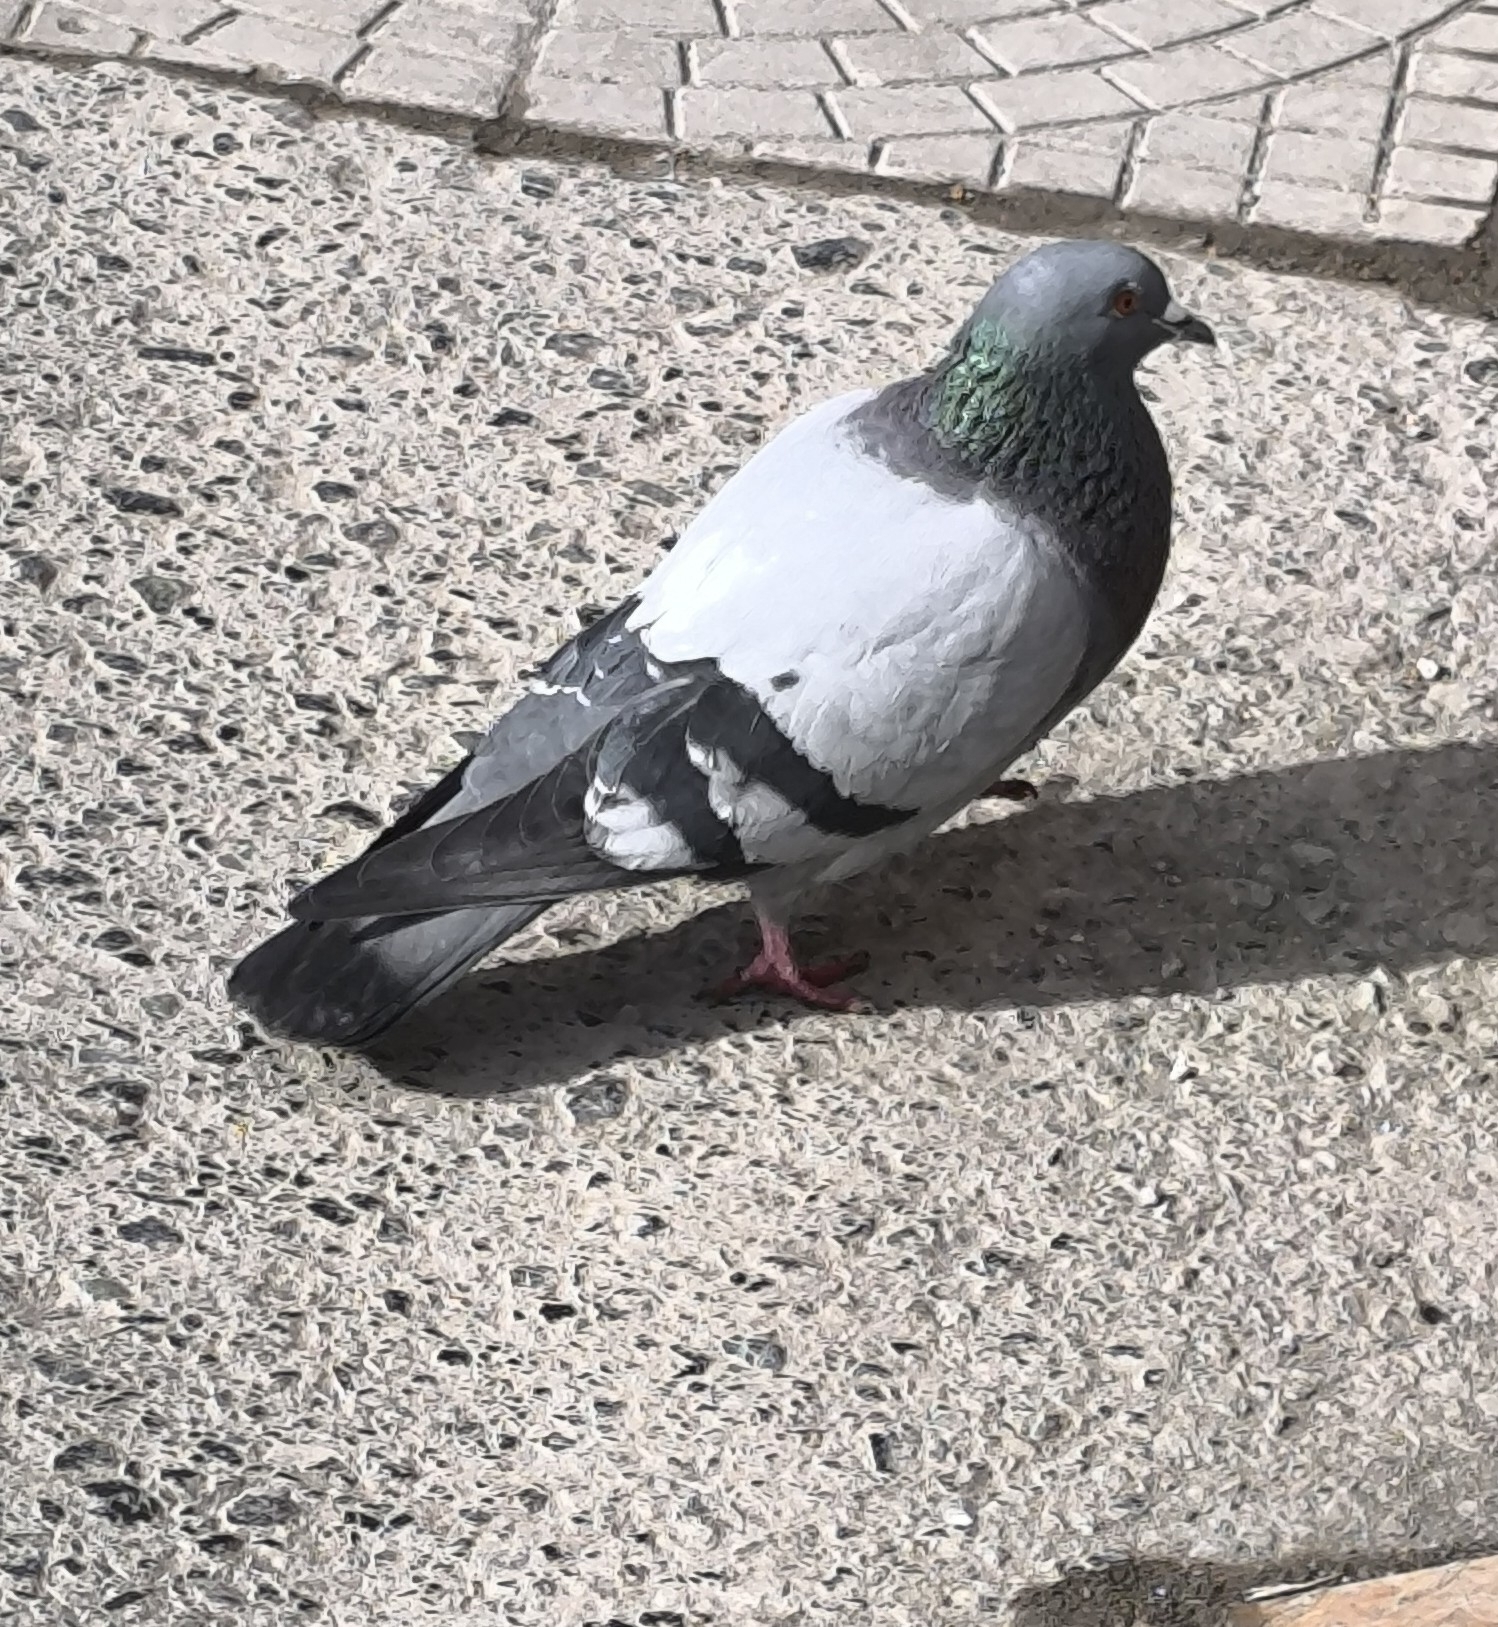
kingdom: Animalia
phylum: Chordata
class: Aves
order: Columbiformes
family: Columbidae
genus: Columba
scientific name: Columba livia
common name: Rock pigeon
